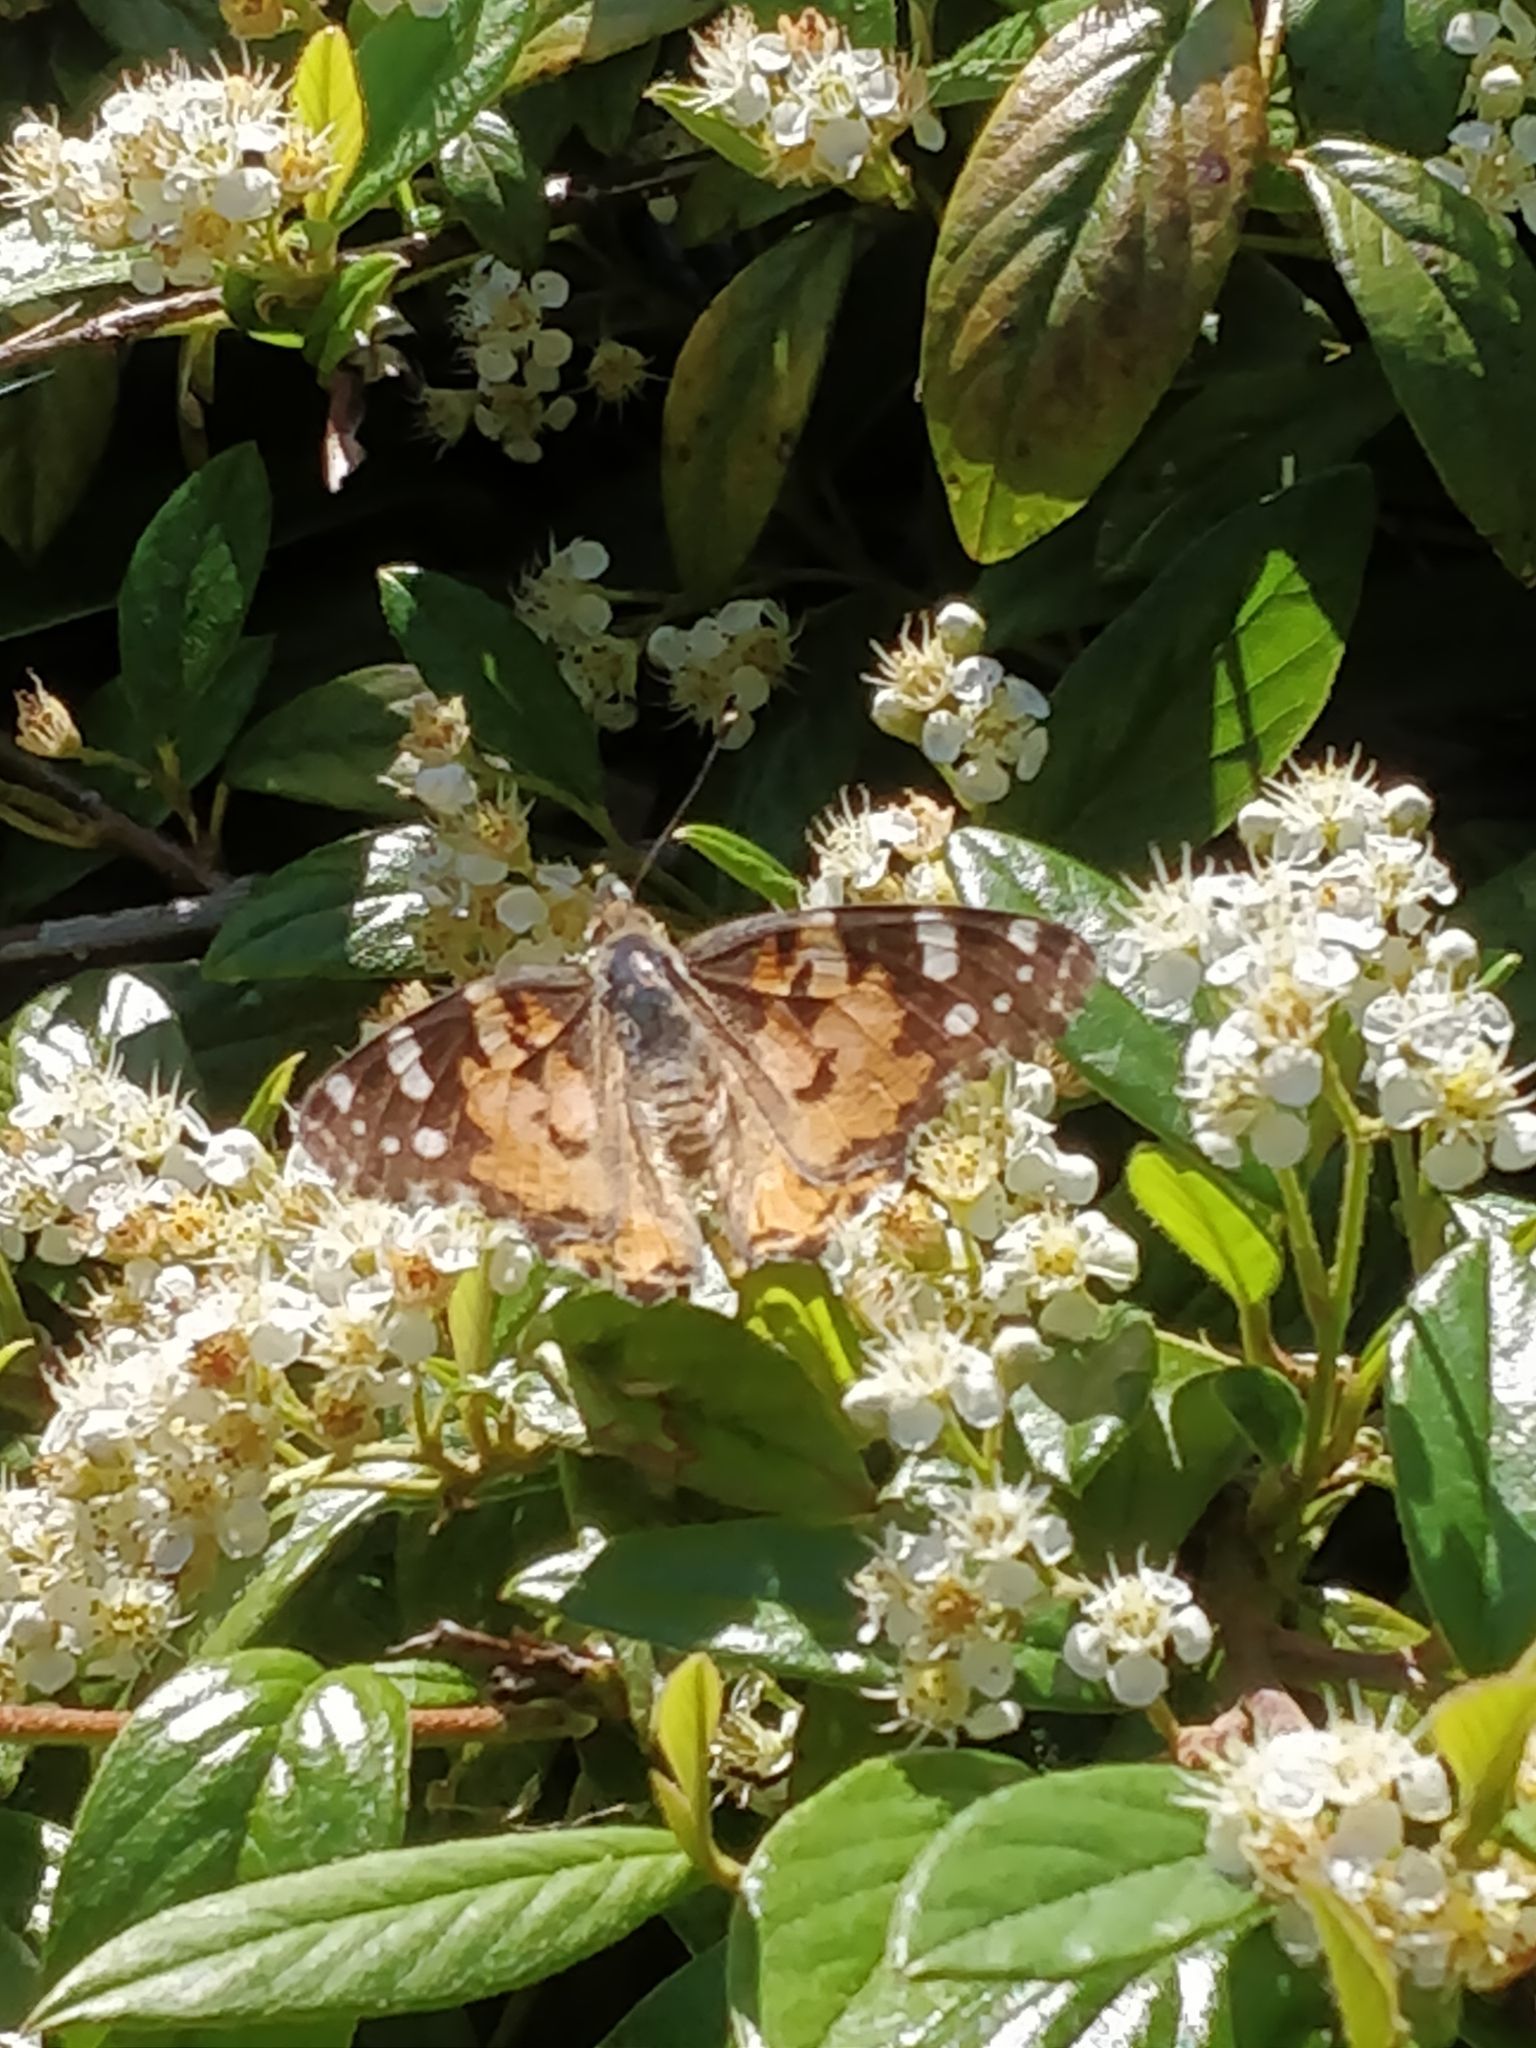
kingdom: Animalia
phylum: Arthropoda
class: Insecta
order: Lepidoptera
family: Nymphalidae
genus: Vanessa
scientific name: Vanessa cardui
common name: Painted lady
